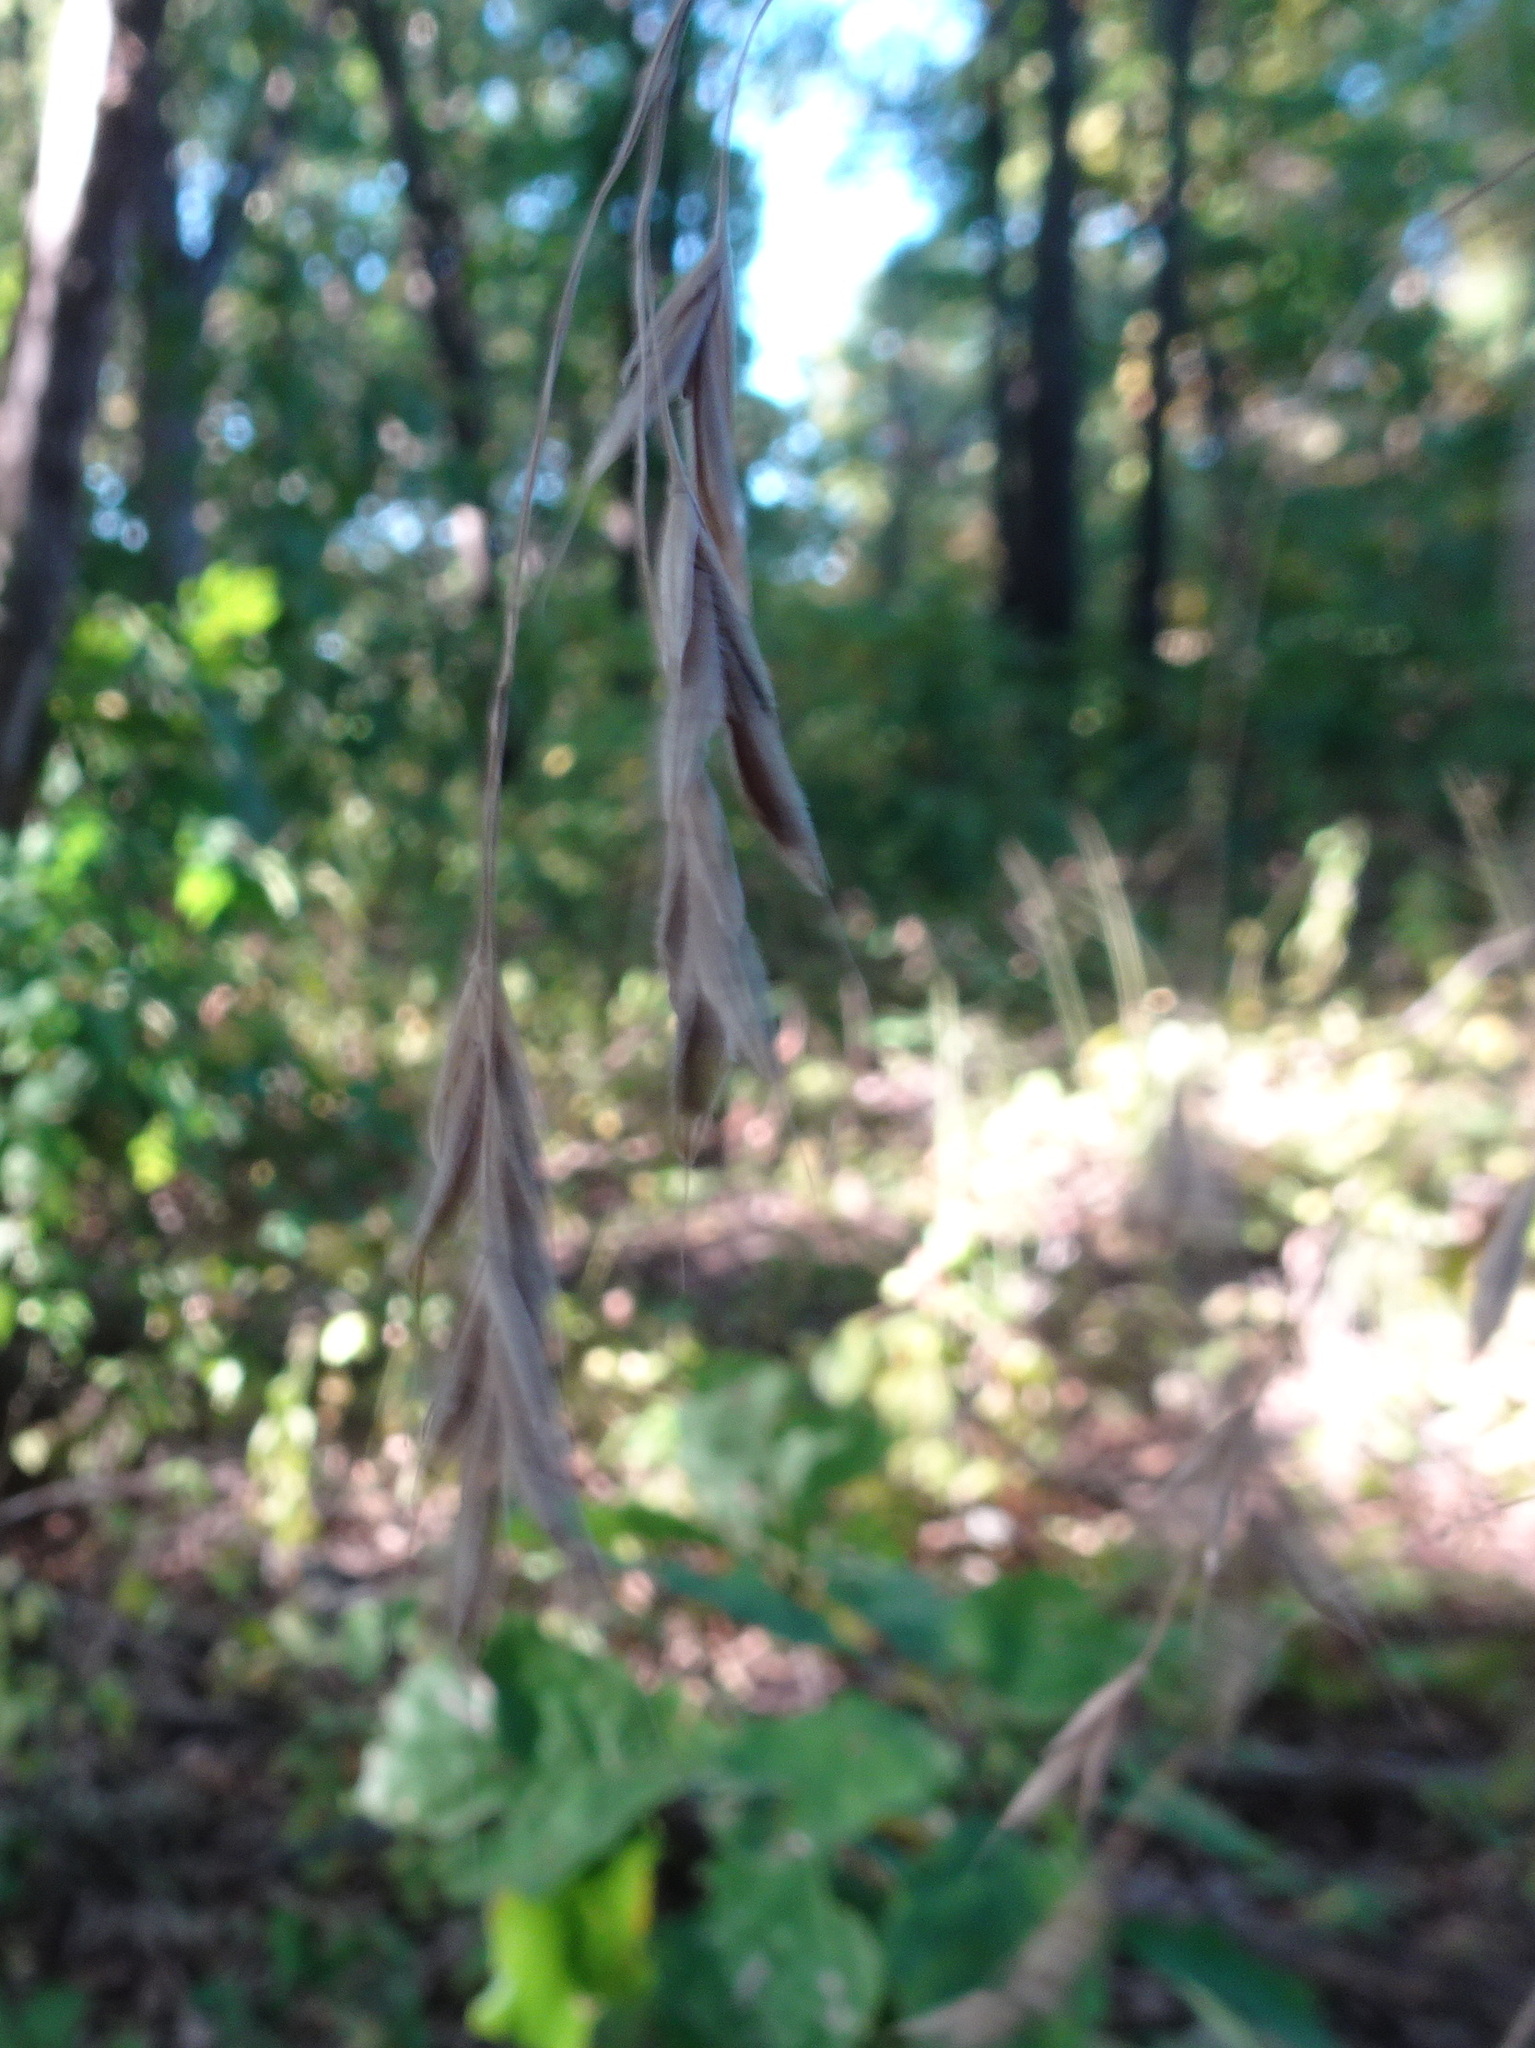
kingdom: Plantae
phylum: Tracheophyta
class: Liliopsida
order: Poales
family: Poaceae
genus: Bromus
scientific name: Bromus pubescens
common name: Hairy wood brome grass
